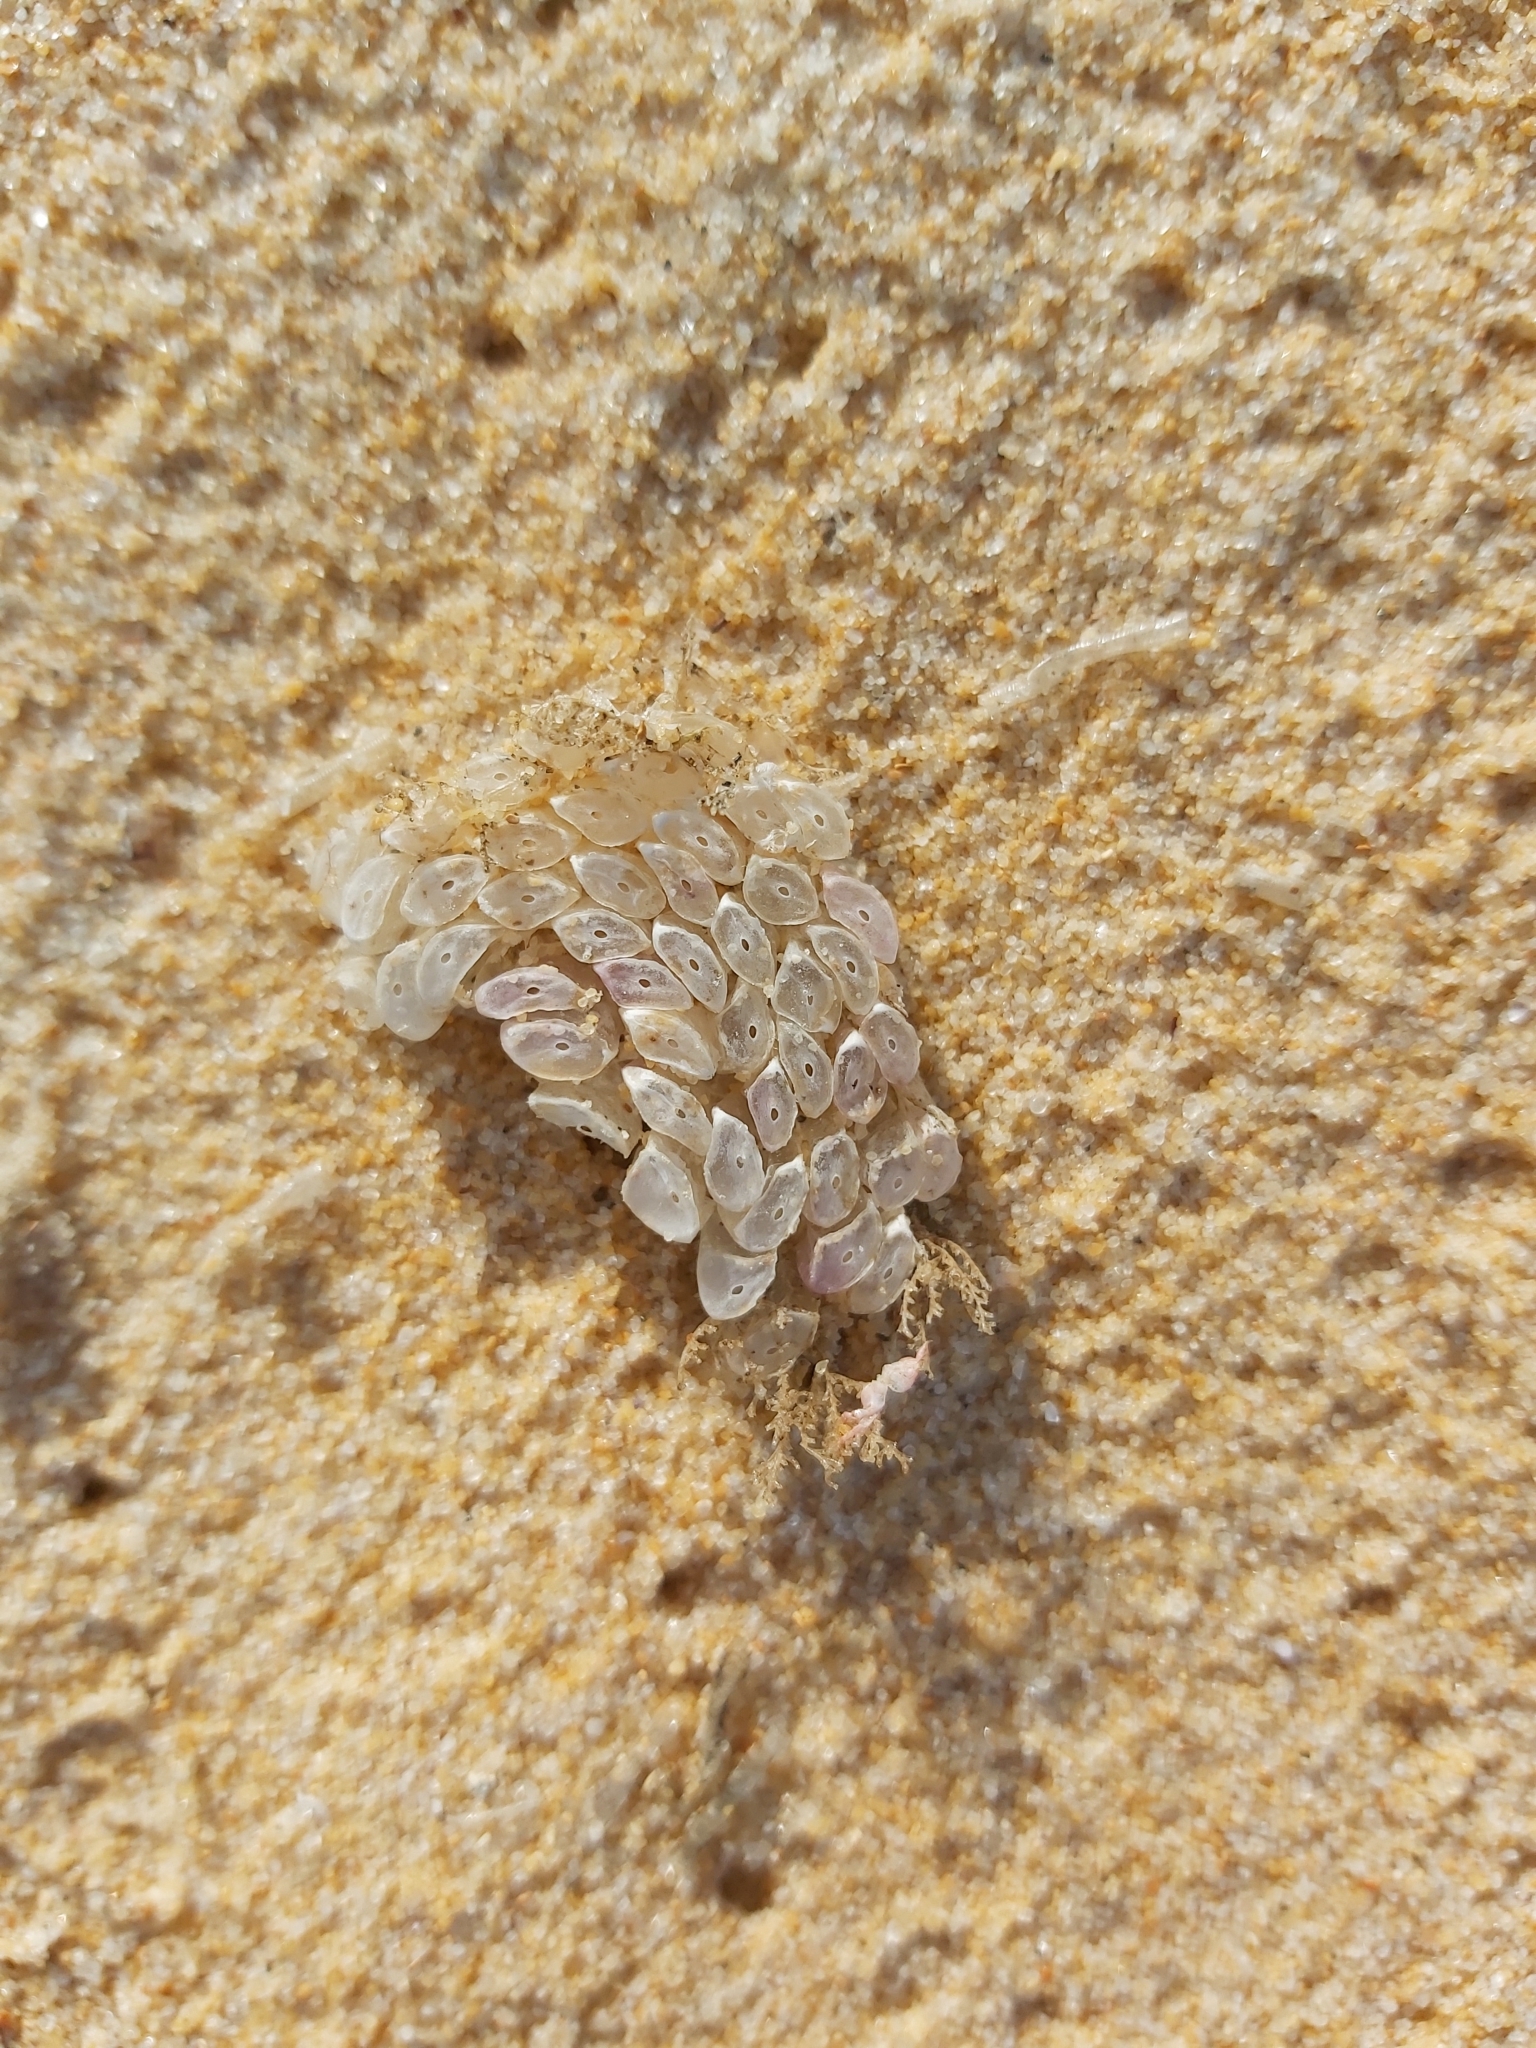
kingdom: Animalia
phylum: Mollusca
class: Gastropoda
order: Neogastropoda
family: Muricidae
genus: Dicathais
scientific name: Dicathais orbita
